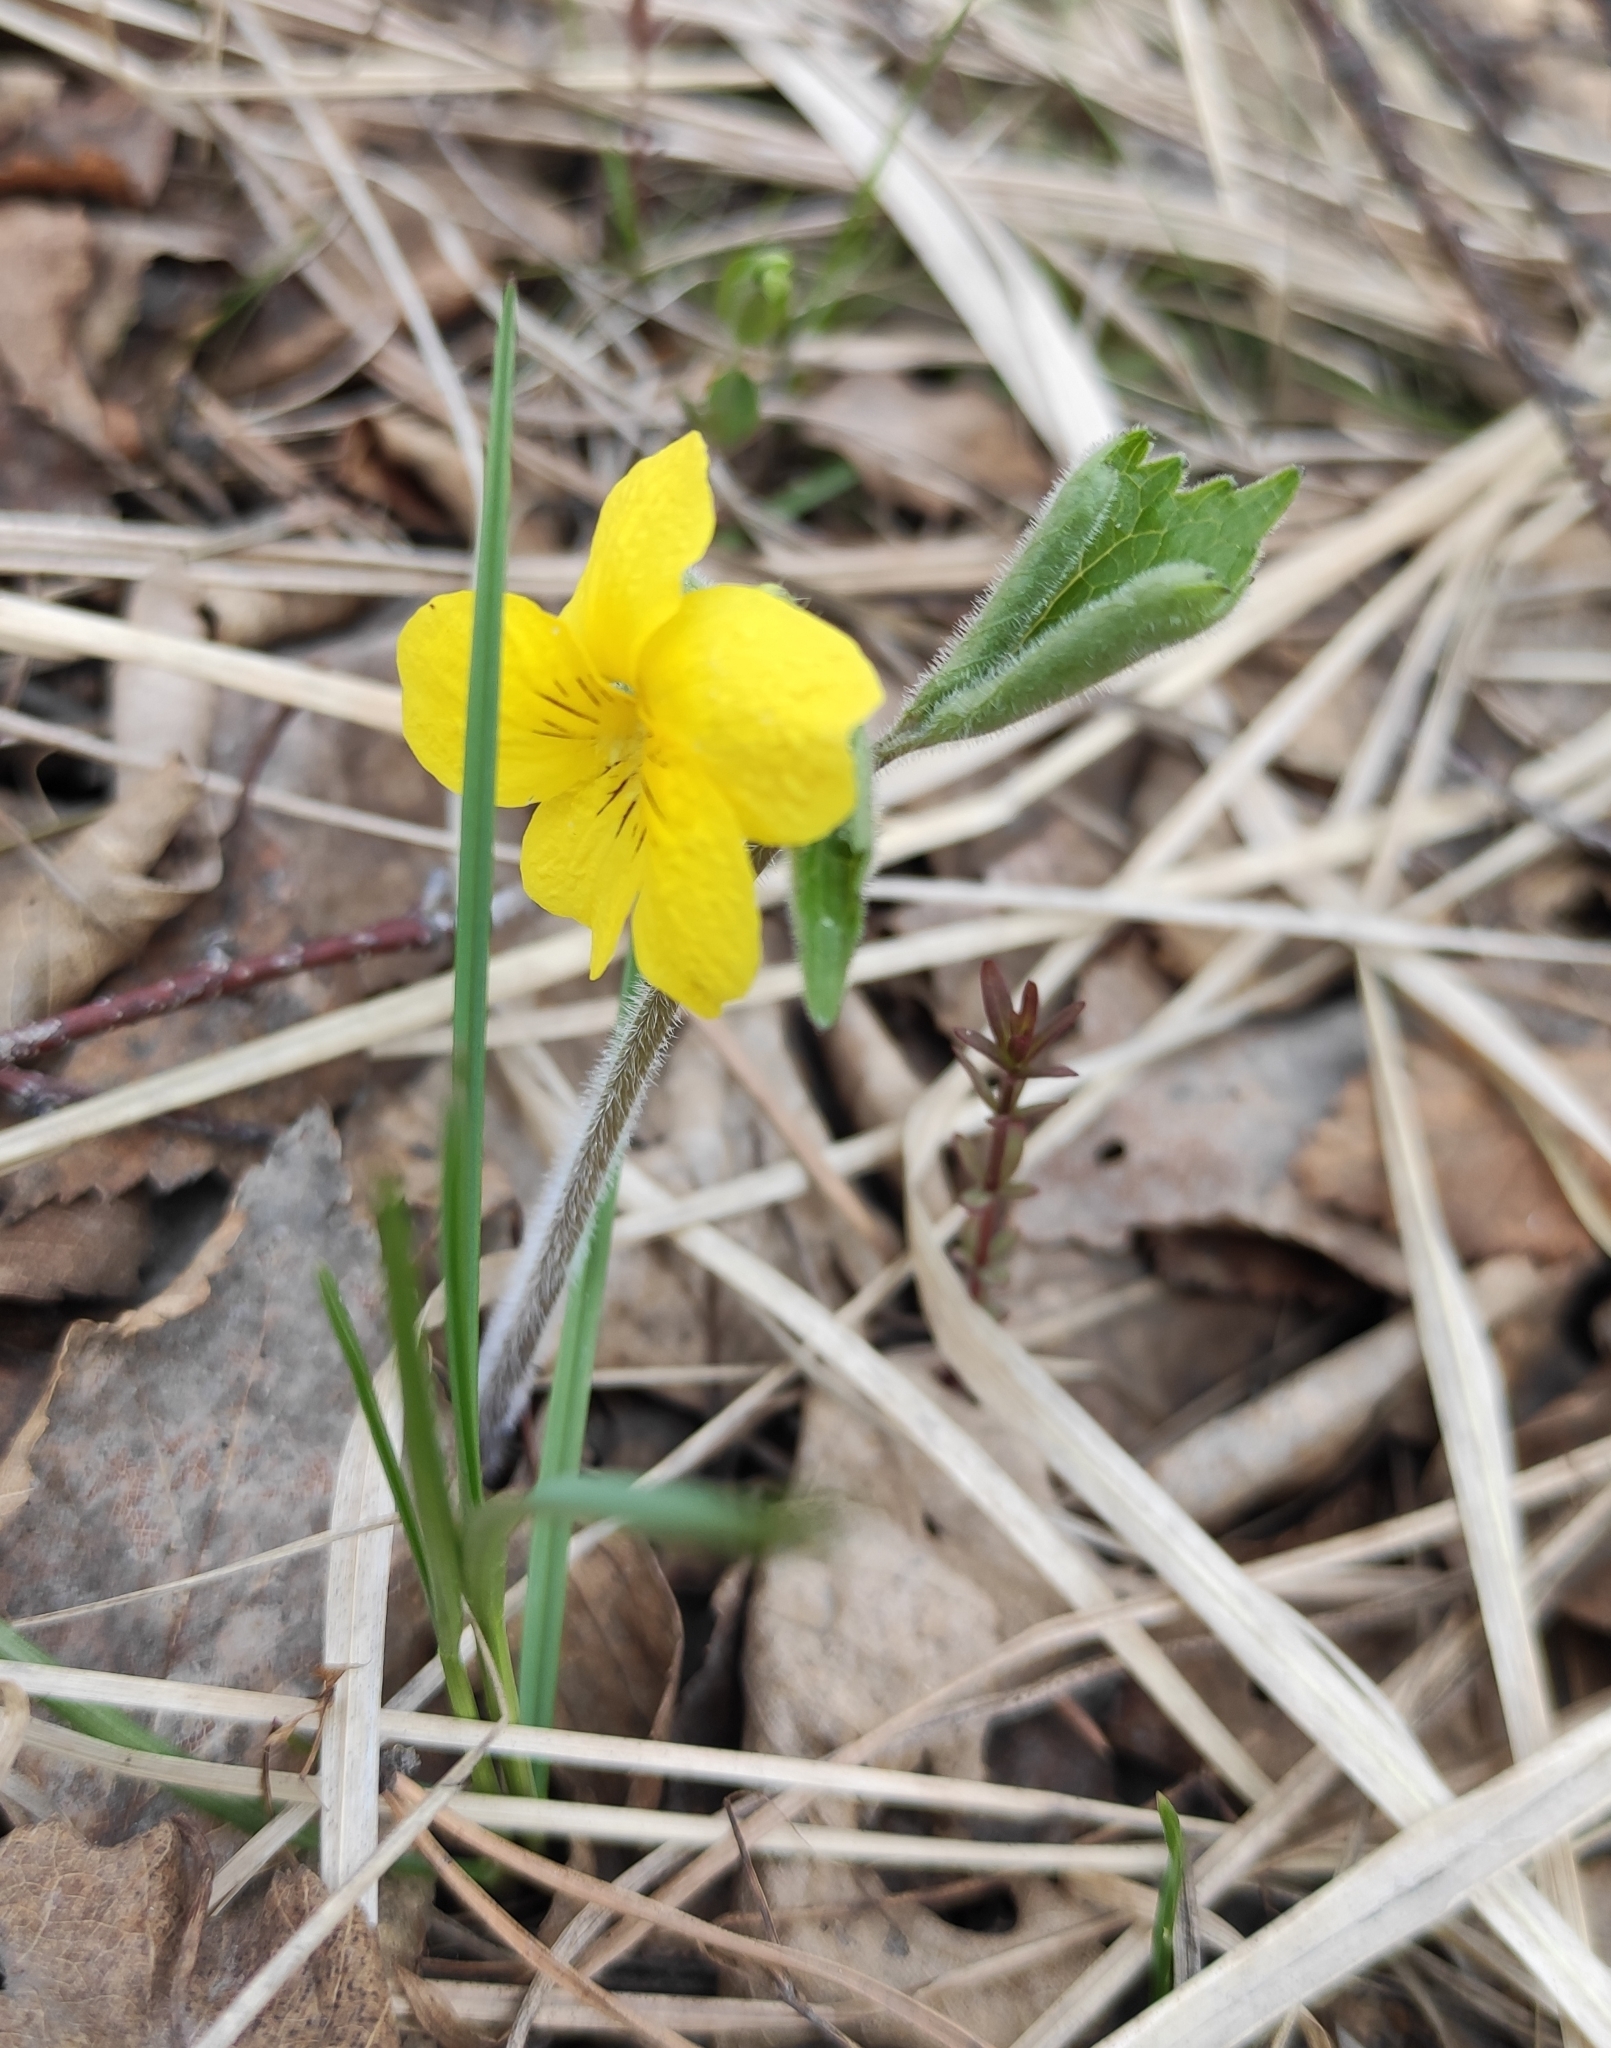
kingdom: Plantae
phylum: Tracheophyta
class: Magnoliopsida
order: Malpighiales
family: Violaceae
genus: Viola
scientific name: Viola uniflora
